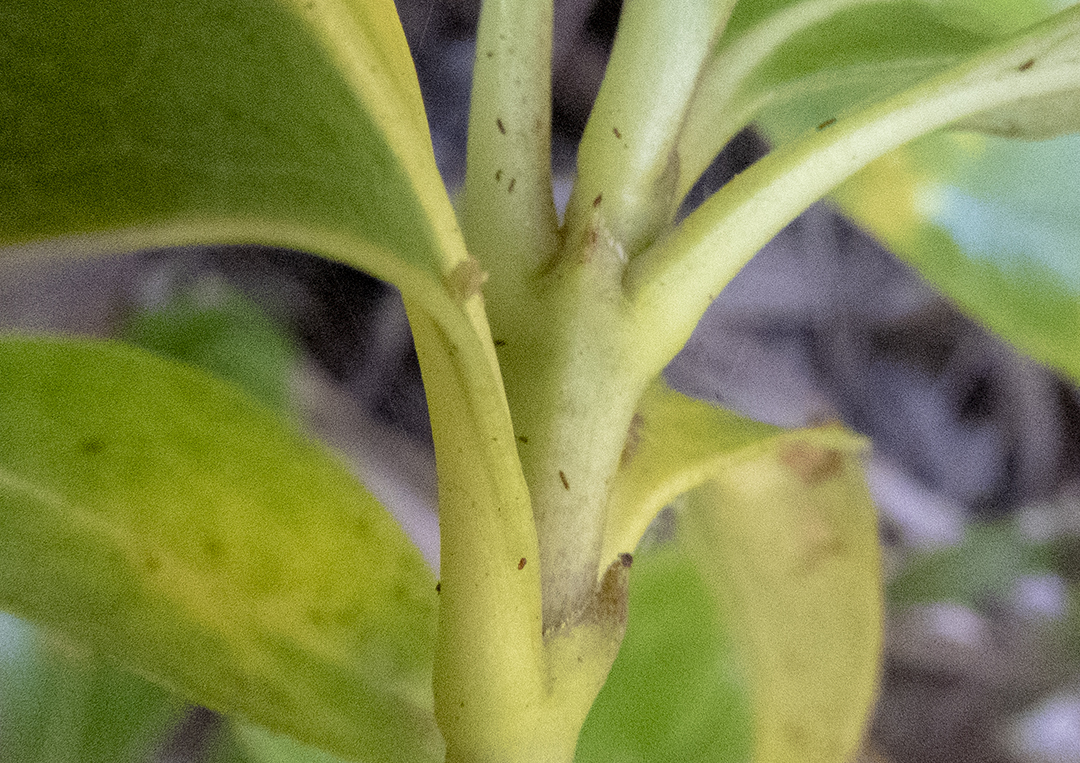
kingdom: Plantae
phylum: Tracheophyta
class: Magnoliopsida
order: Gentianales
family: Rubiaceae
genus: Coprosma
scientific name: Coprosma lucida
